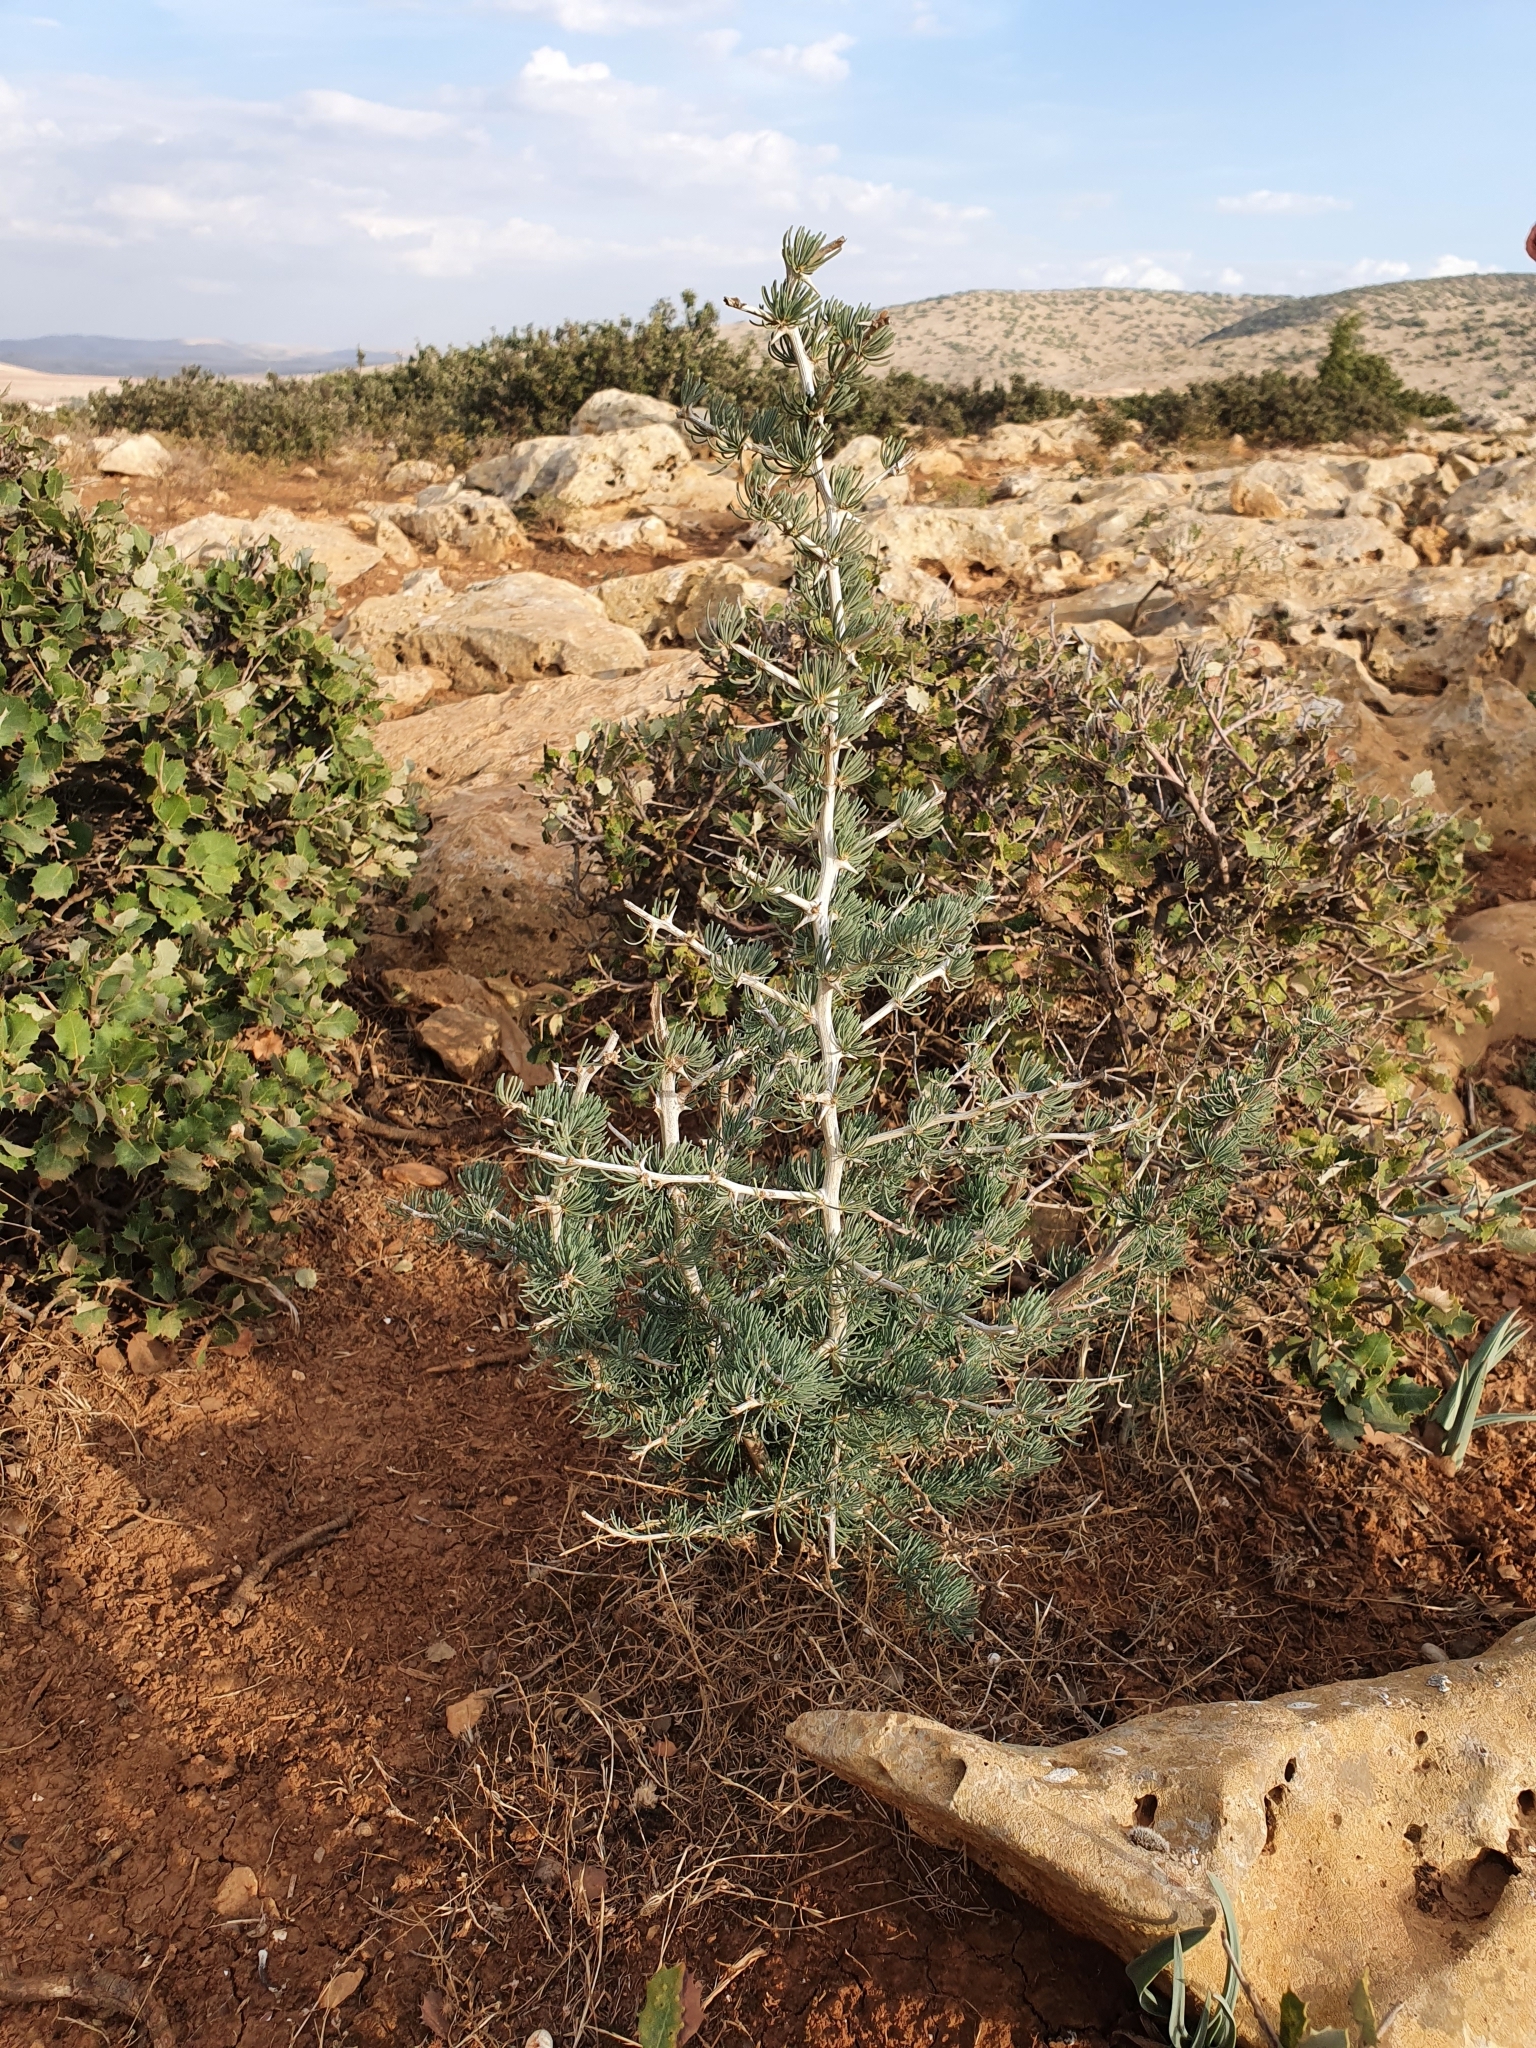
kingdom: Plantae
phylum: Tracheophyta
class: Liliopsida
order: Asparagales
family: Asparagaceae
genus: Asparagus
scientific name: Asparagus albus
